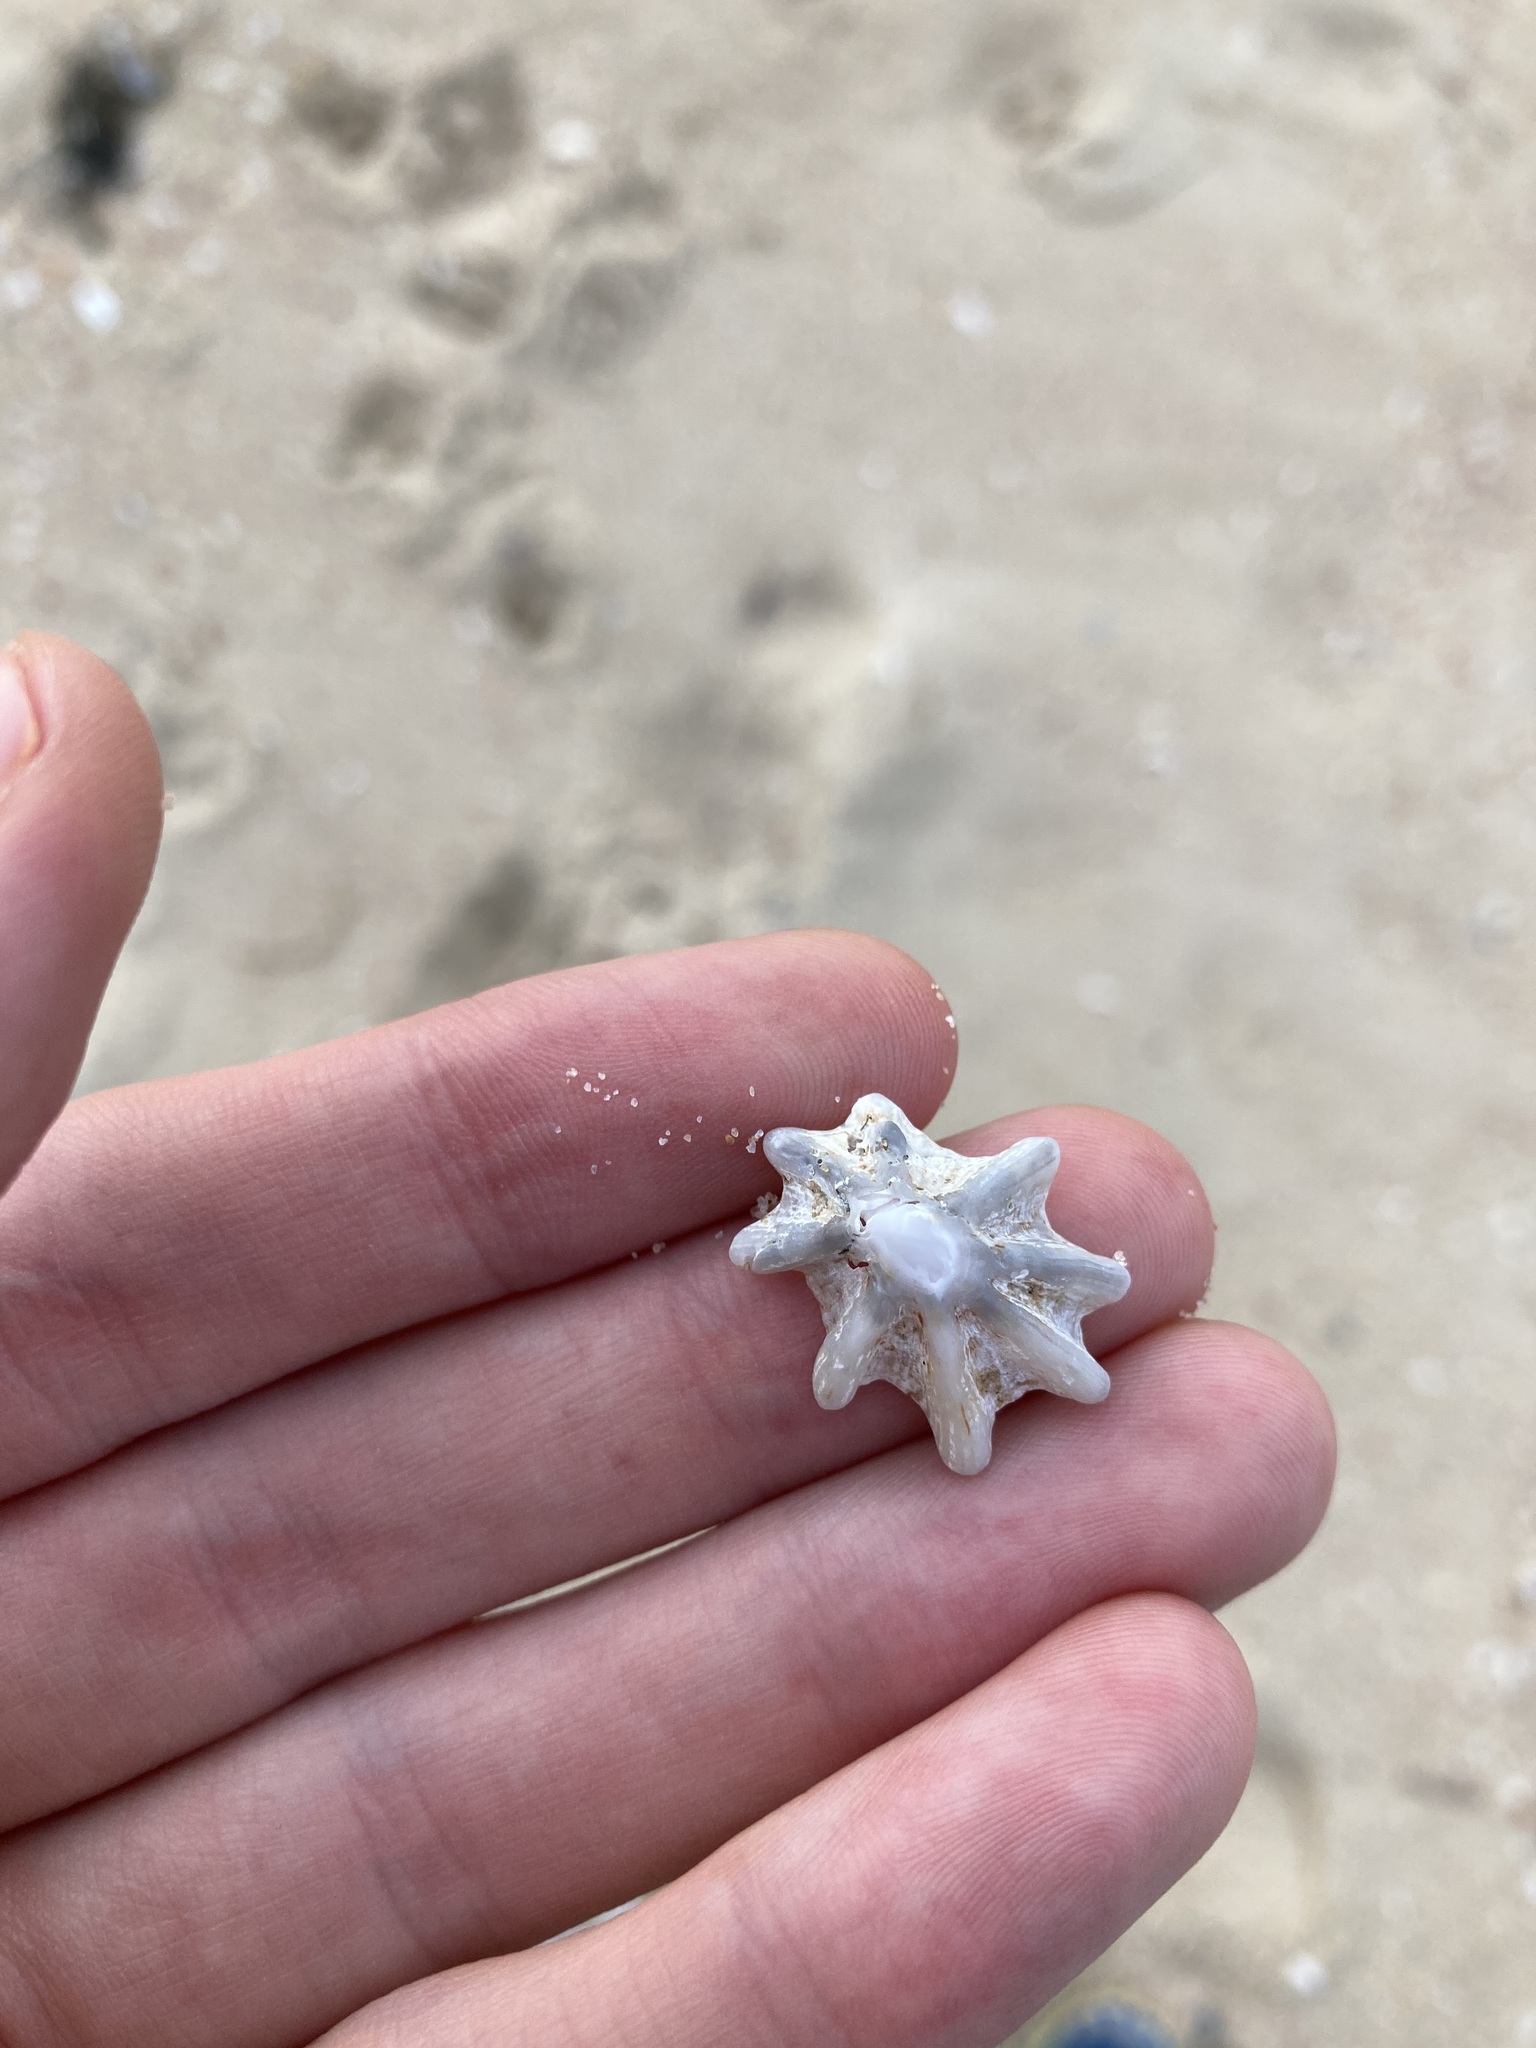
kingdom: Animalia
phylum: Mollusca
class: Gastropoda
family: Patellidae
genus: Scutellastra
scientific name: Scutellastra chapmani
